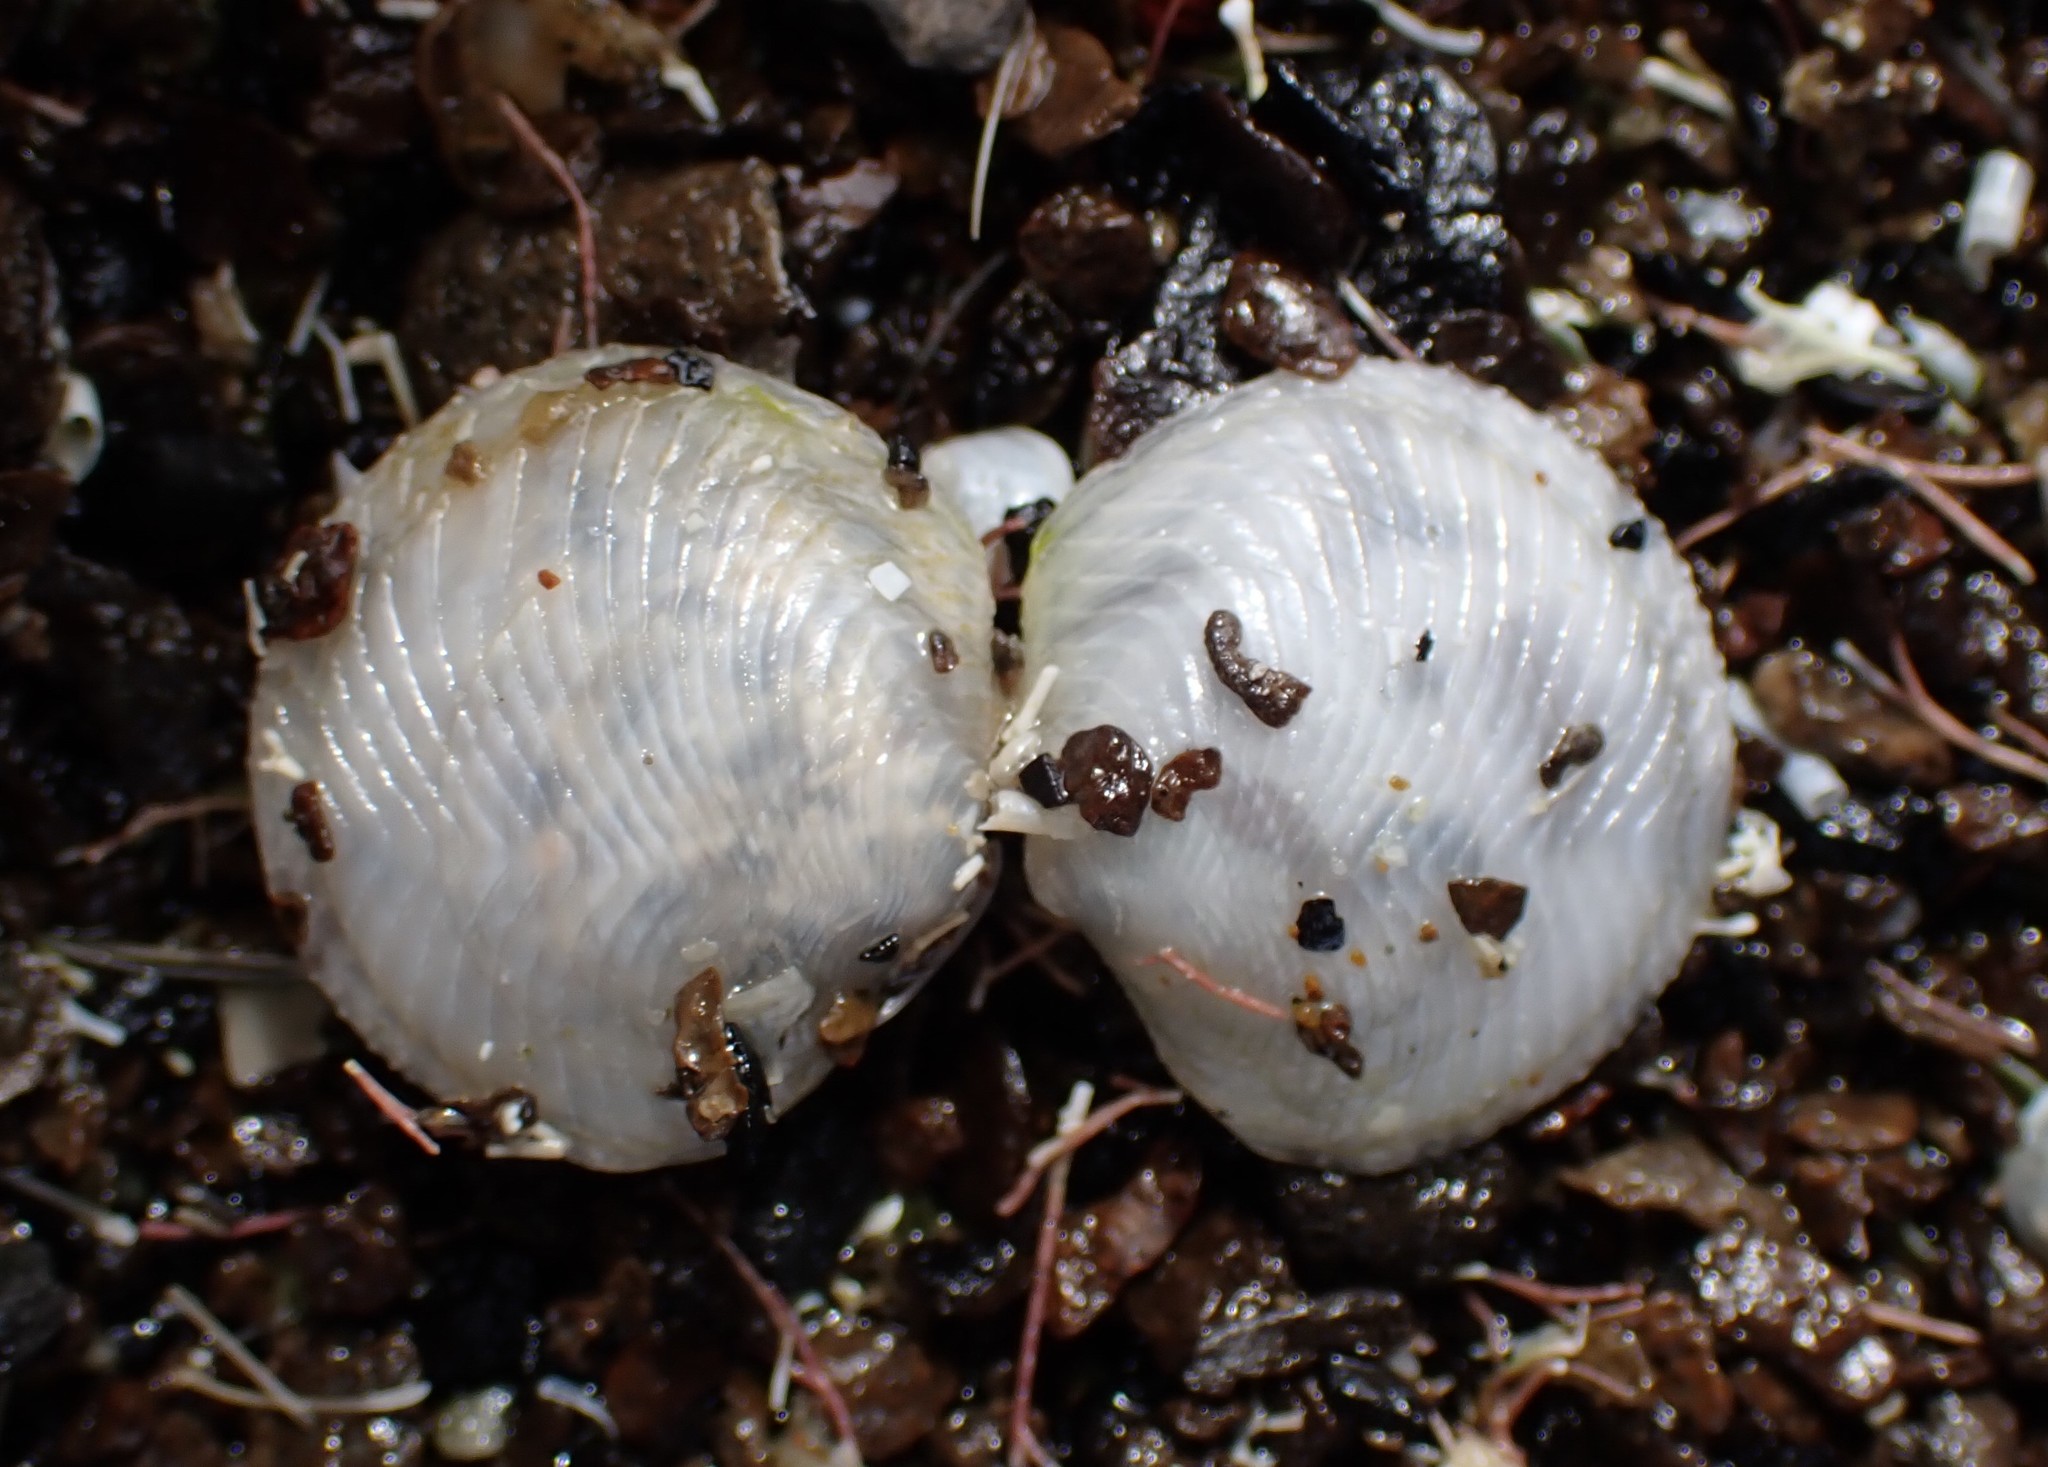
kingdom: Animalia
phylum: Mollusca
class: Bivalvia
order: Lucinida
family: Lucinidae
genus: Divalucina
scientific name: Divalucina cumingi
